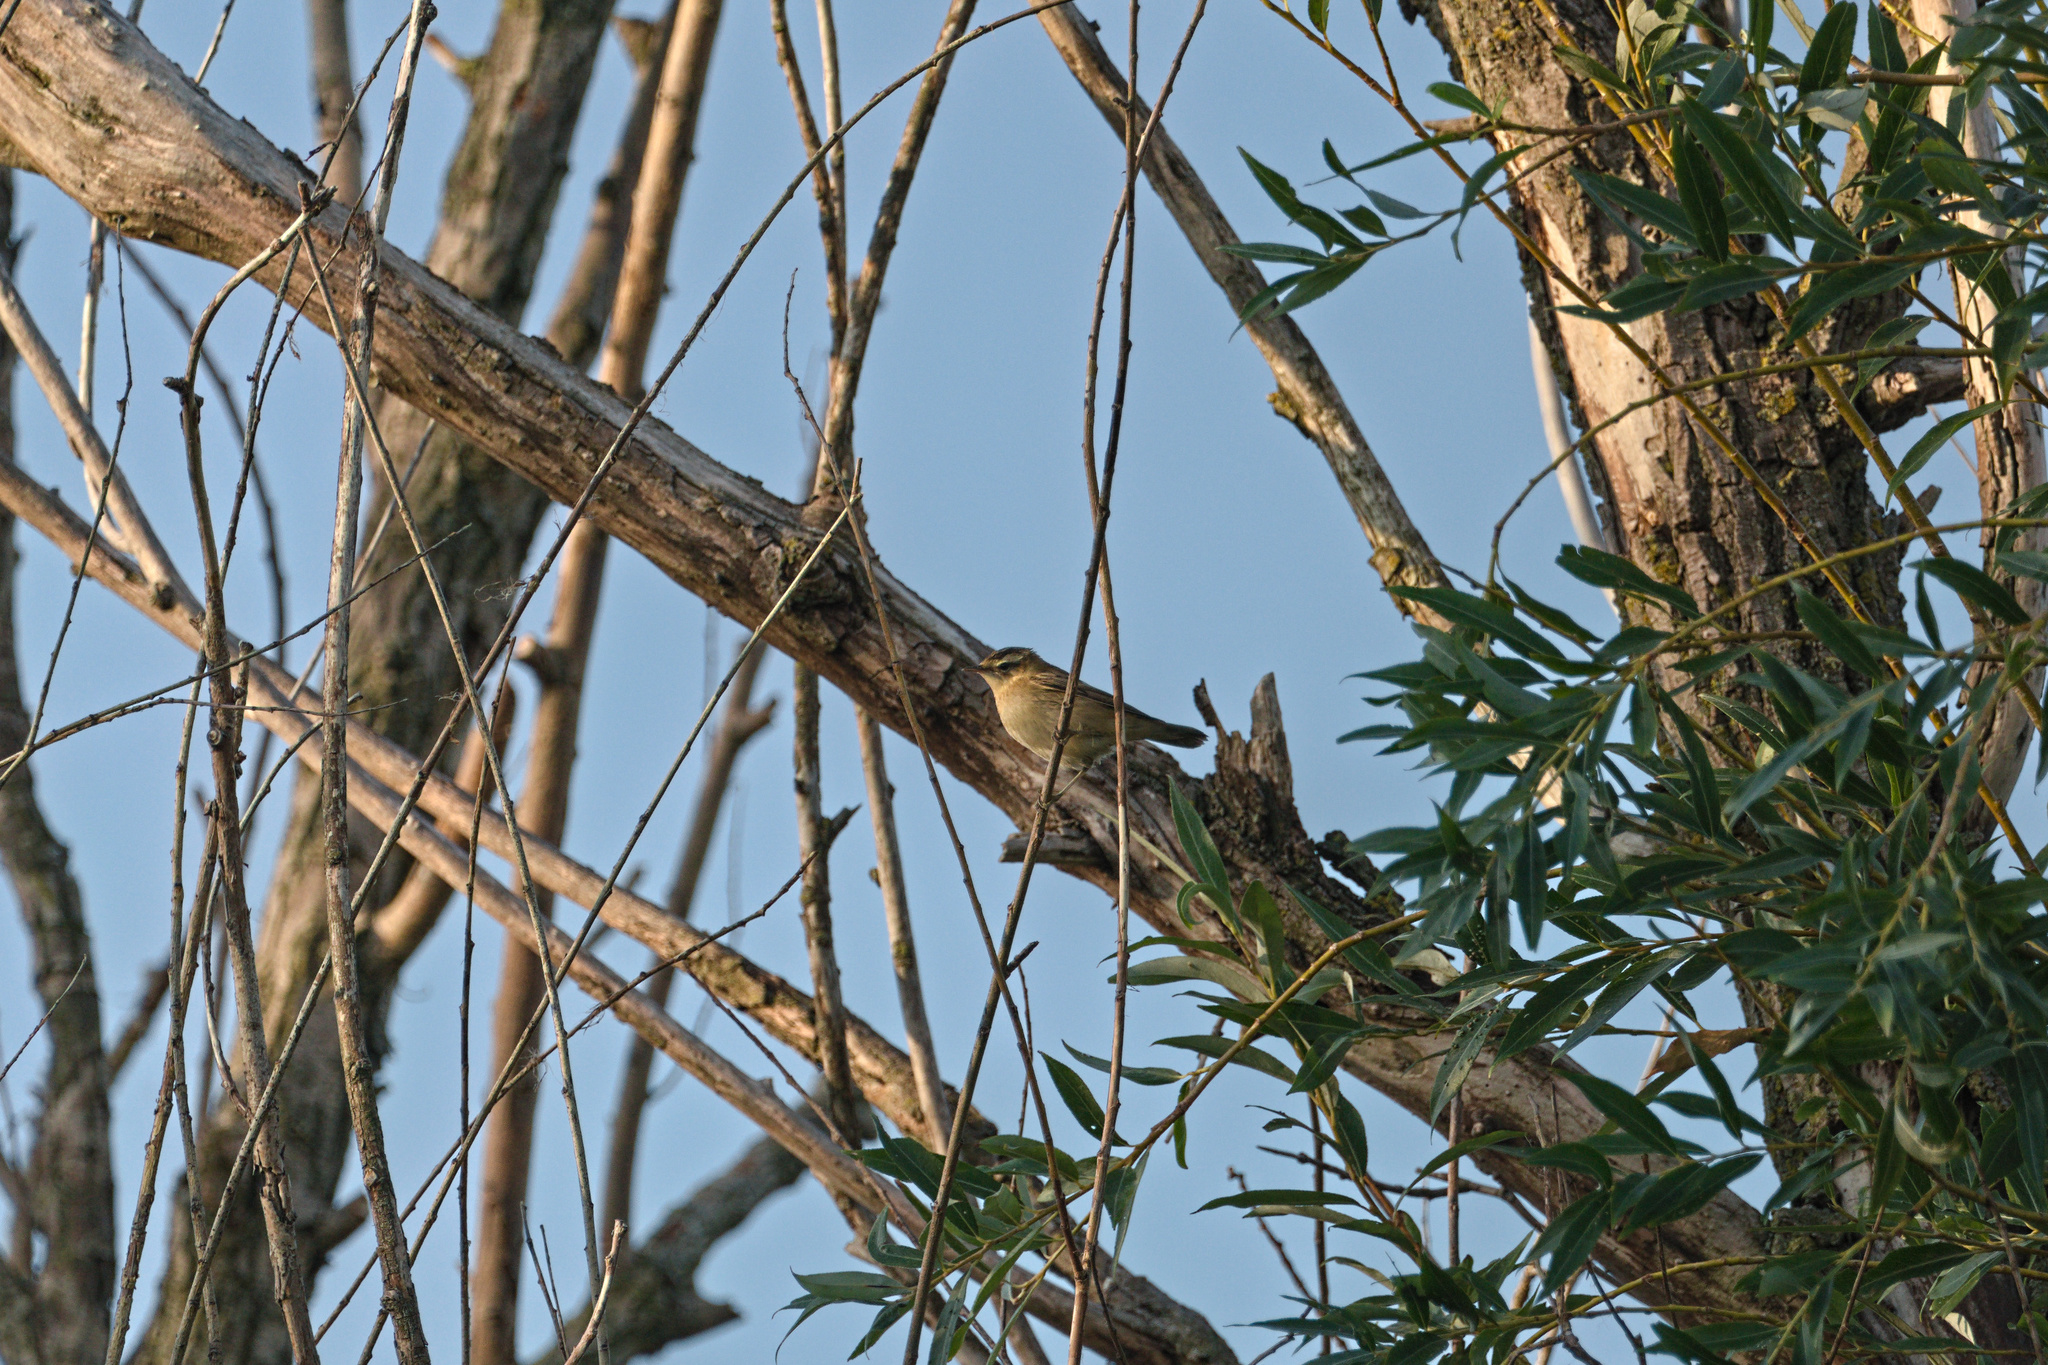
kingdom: Animalia
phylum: Chordata
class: Aves
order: Passeriformes
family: Acrocephalidae
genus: Acrocephalus
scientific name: Acrocephalus schoenobaenus
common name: Sedge warbler
